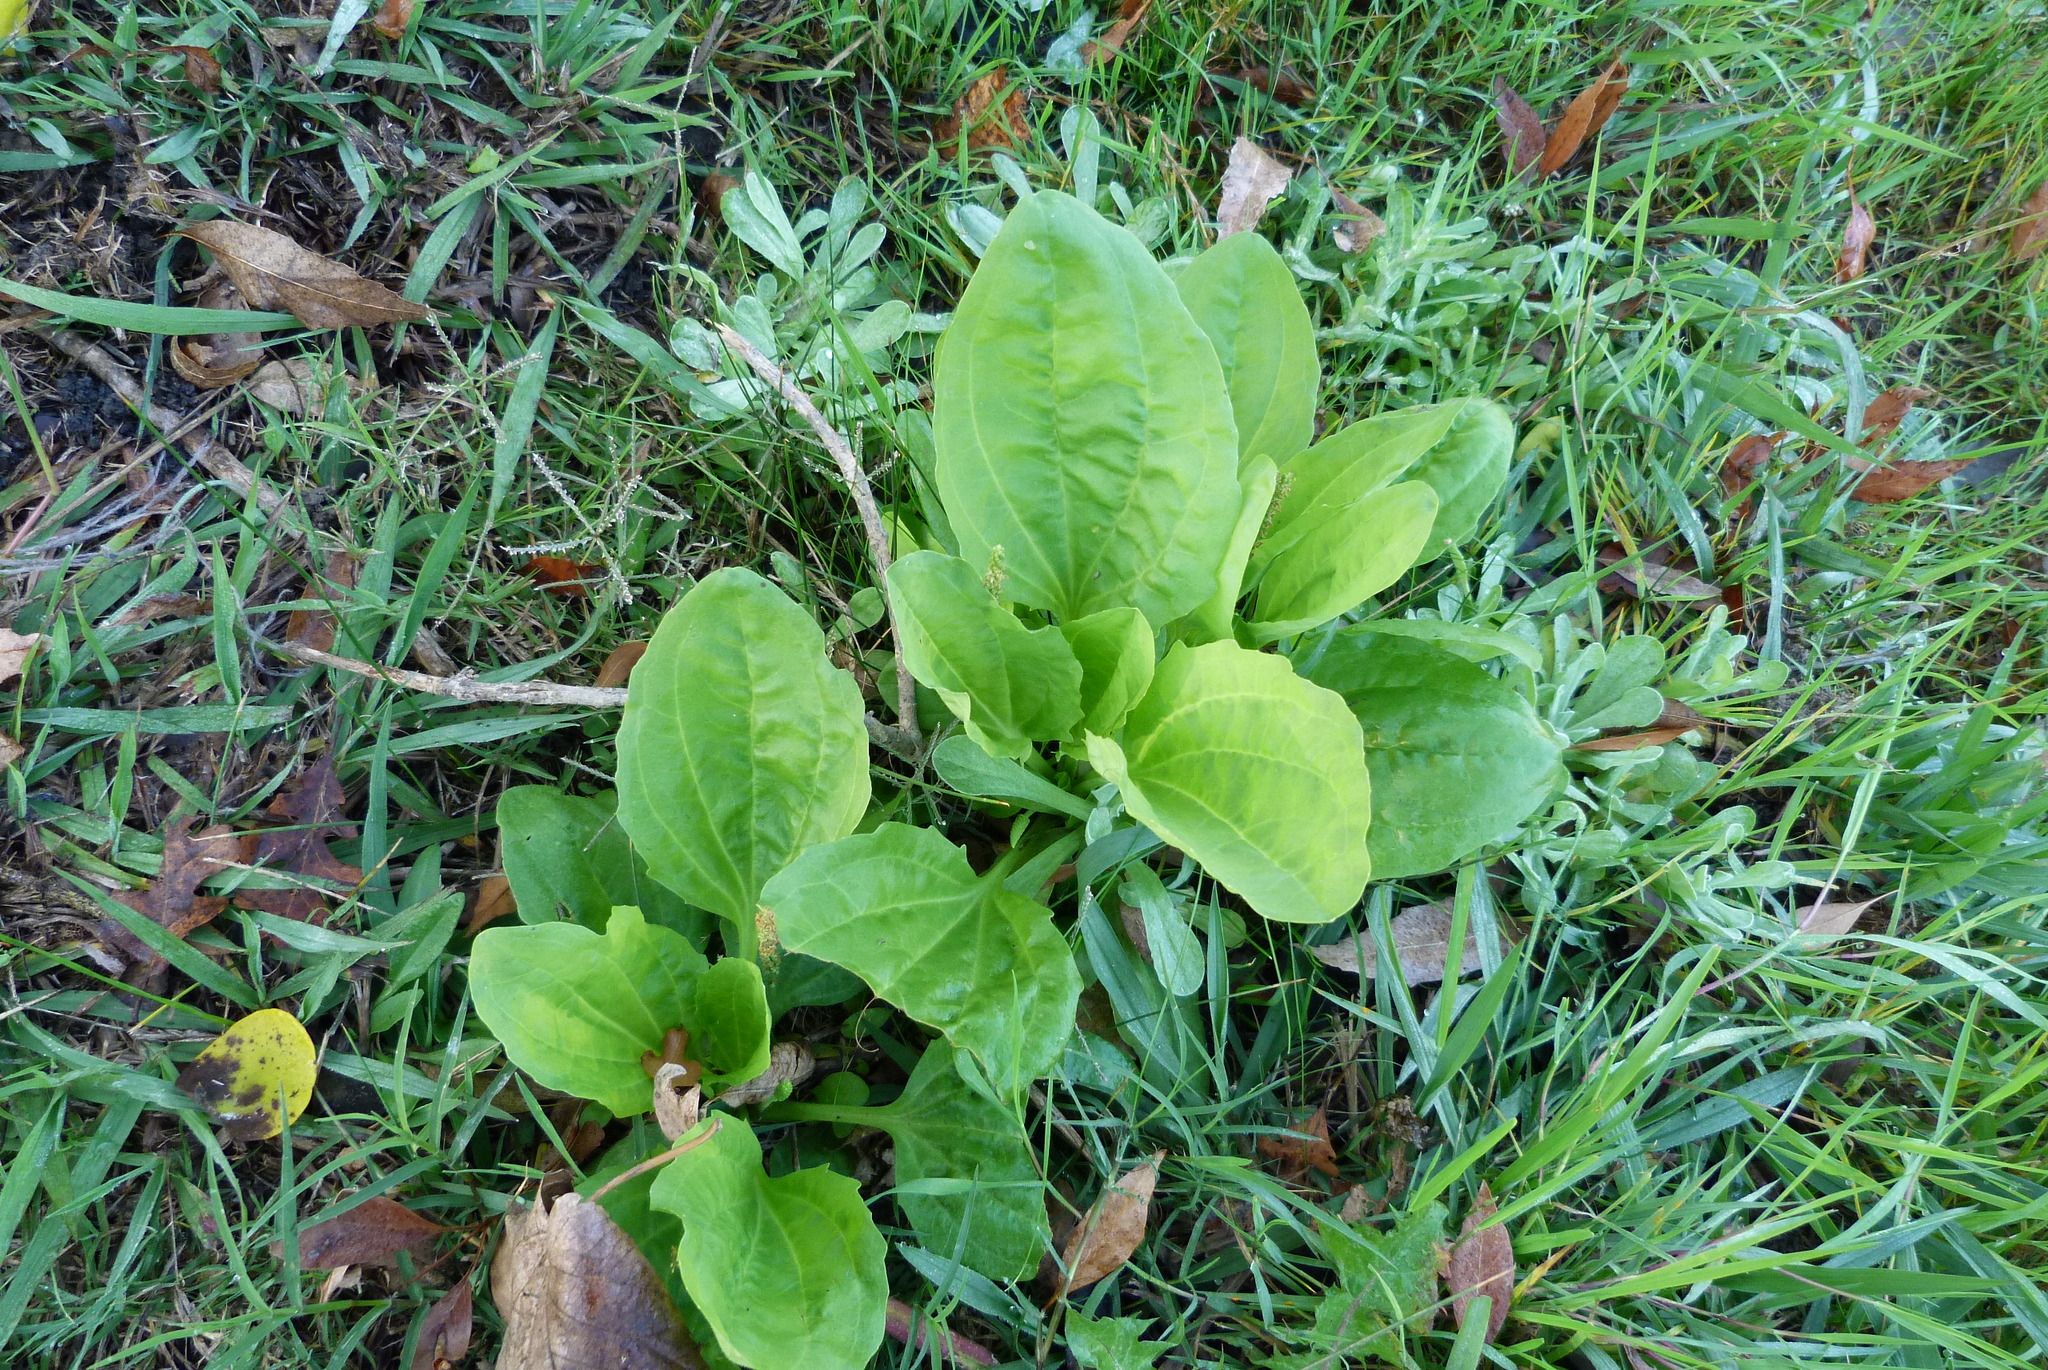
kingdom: Plantae
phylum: Tracheophyta
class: Magnoliopsida
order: Lamiales
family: Plantaginaceae
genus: Plantago
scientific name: Plantago major
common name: Common plantain
